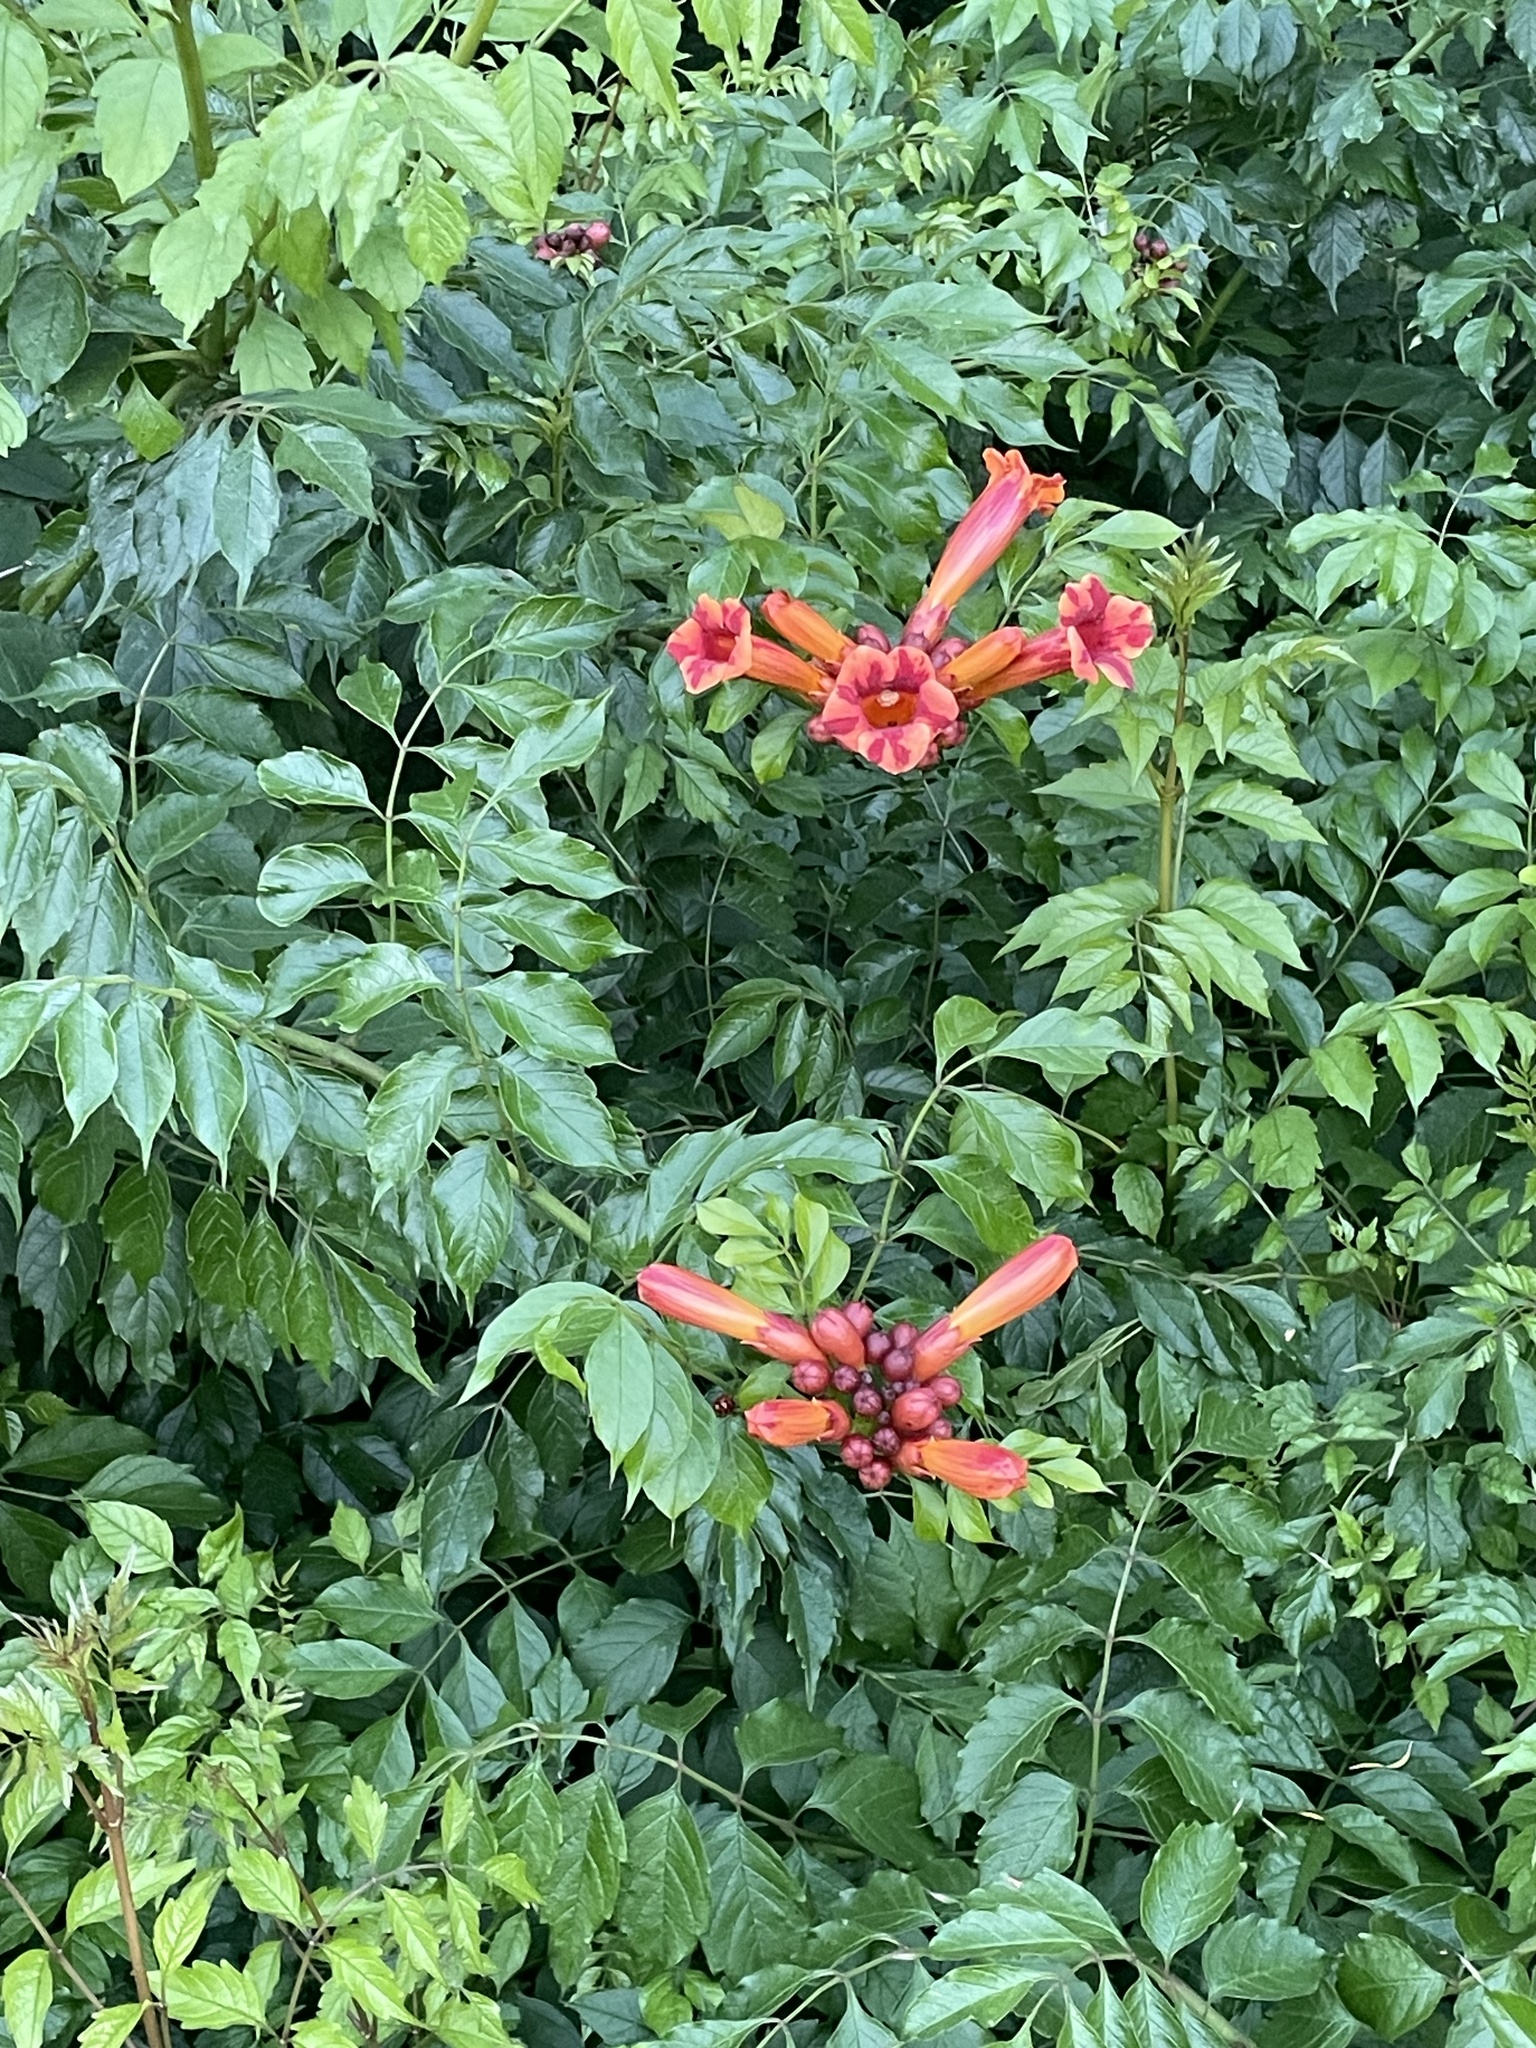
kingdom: Plantae
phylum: Tracheophyta
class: Magnoliopsida
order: Lamiales
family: Bignoniaceae
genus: Campsis
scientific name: Campsis radicans
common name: Trumpet-creeper
